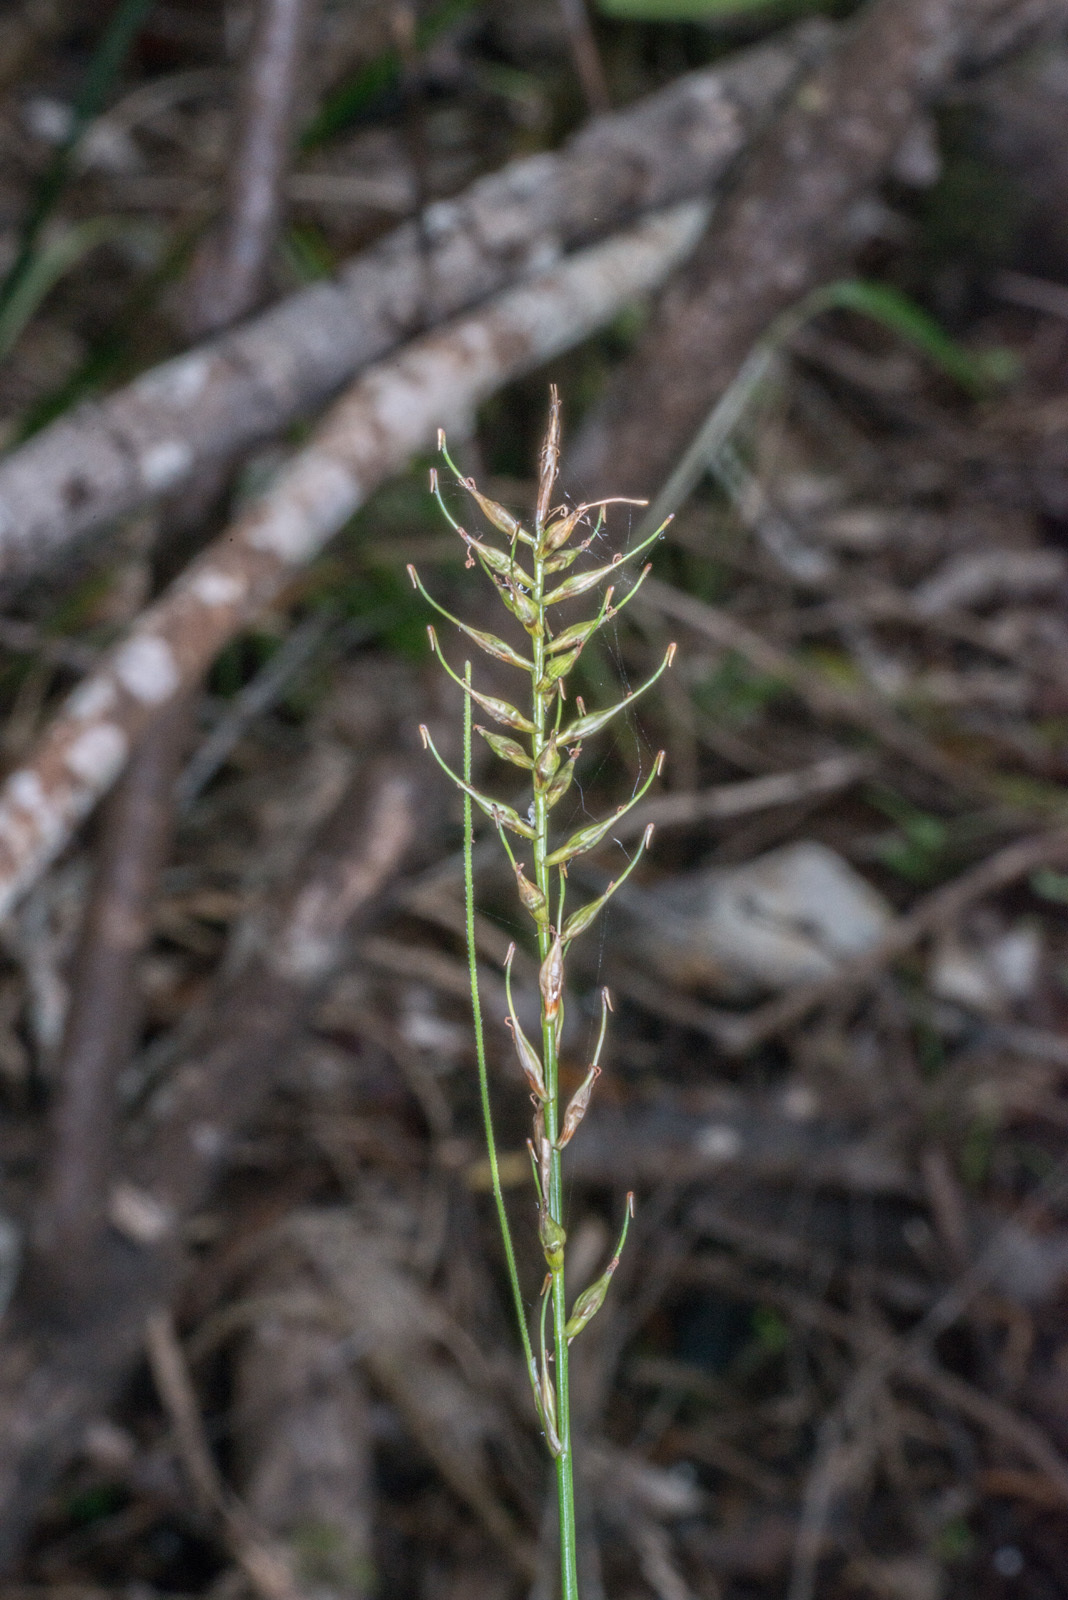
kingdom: Plantae
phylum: Tracheophyta
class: Liliopsida
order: Poales
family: Cyperaceae
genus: Carex
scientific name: Carex zotovii
